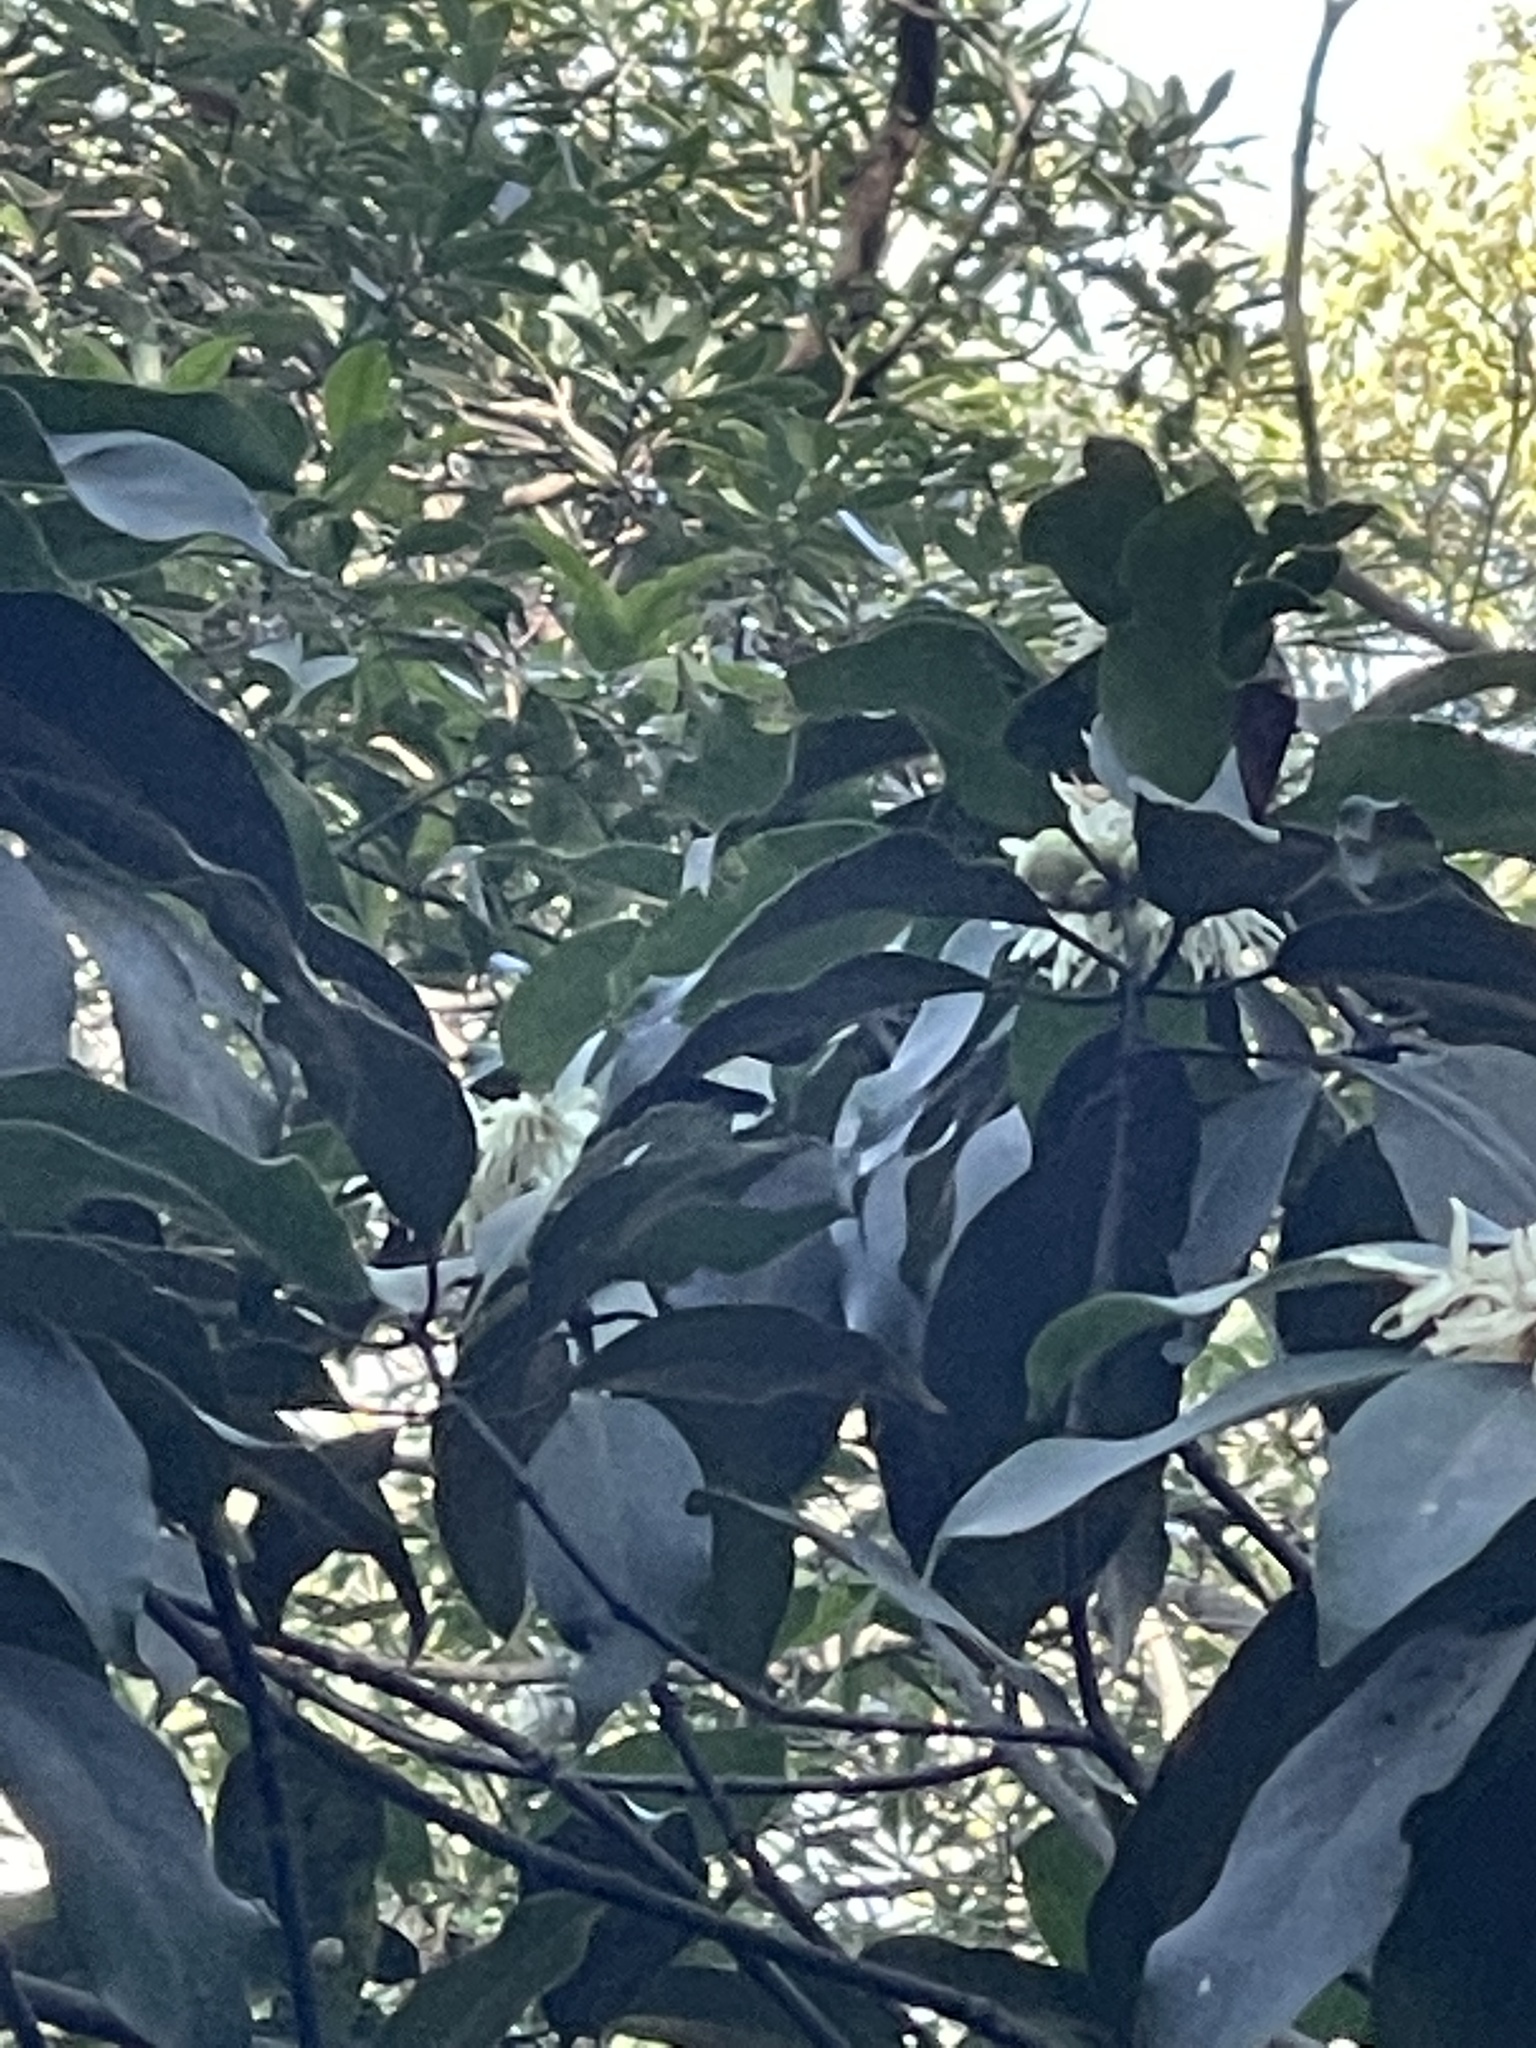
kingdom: Plantae
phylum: Tracheophyta
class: Magnoliopsida
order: Austrobaileyales
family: Schisandraceae
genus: Illicium
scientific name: Illicium angustisepalum
